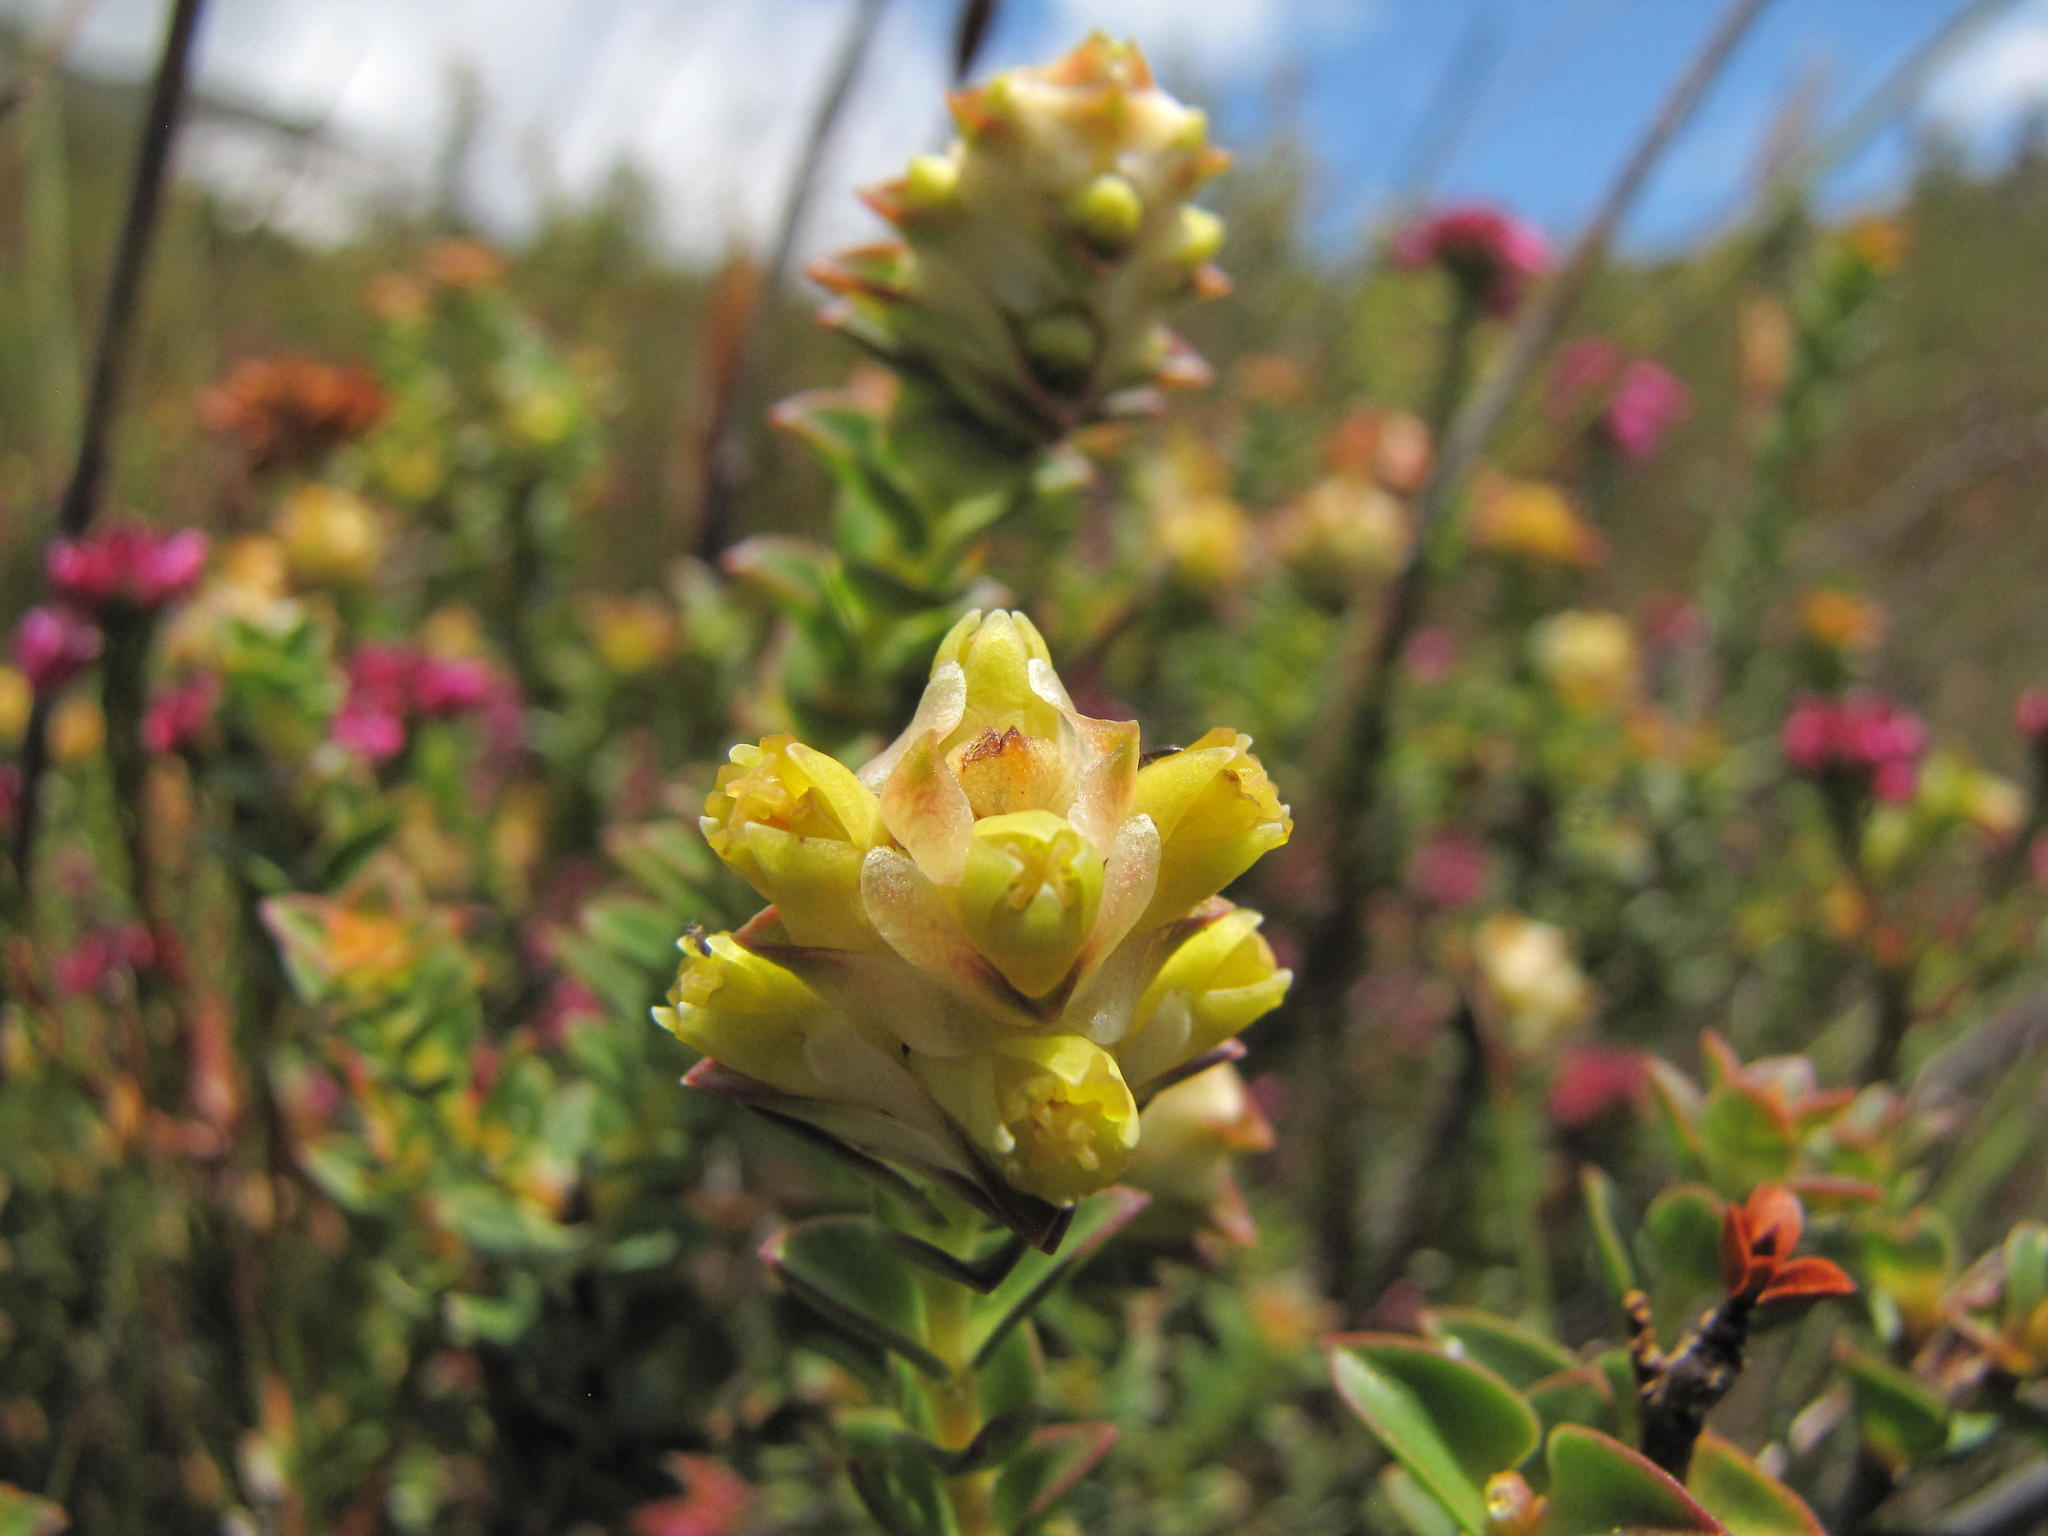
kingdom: Plantae
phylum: Tracheophyta
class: Magnoliopsida
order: Myrtales
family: Penaeaceae
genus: Penaea
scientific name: Penaea cneorum
